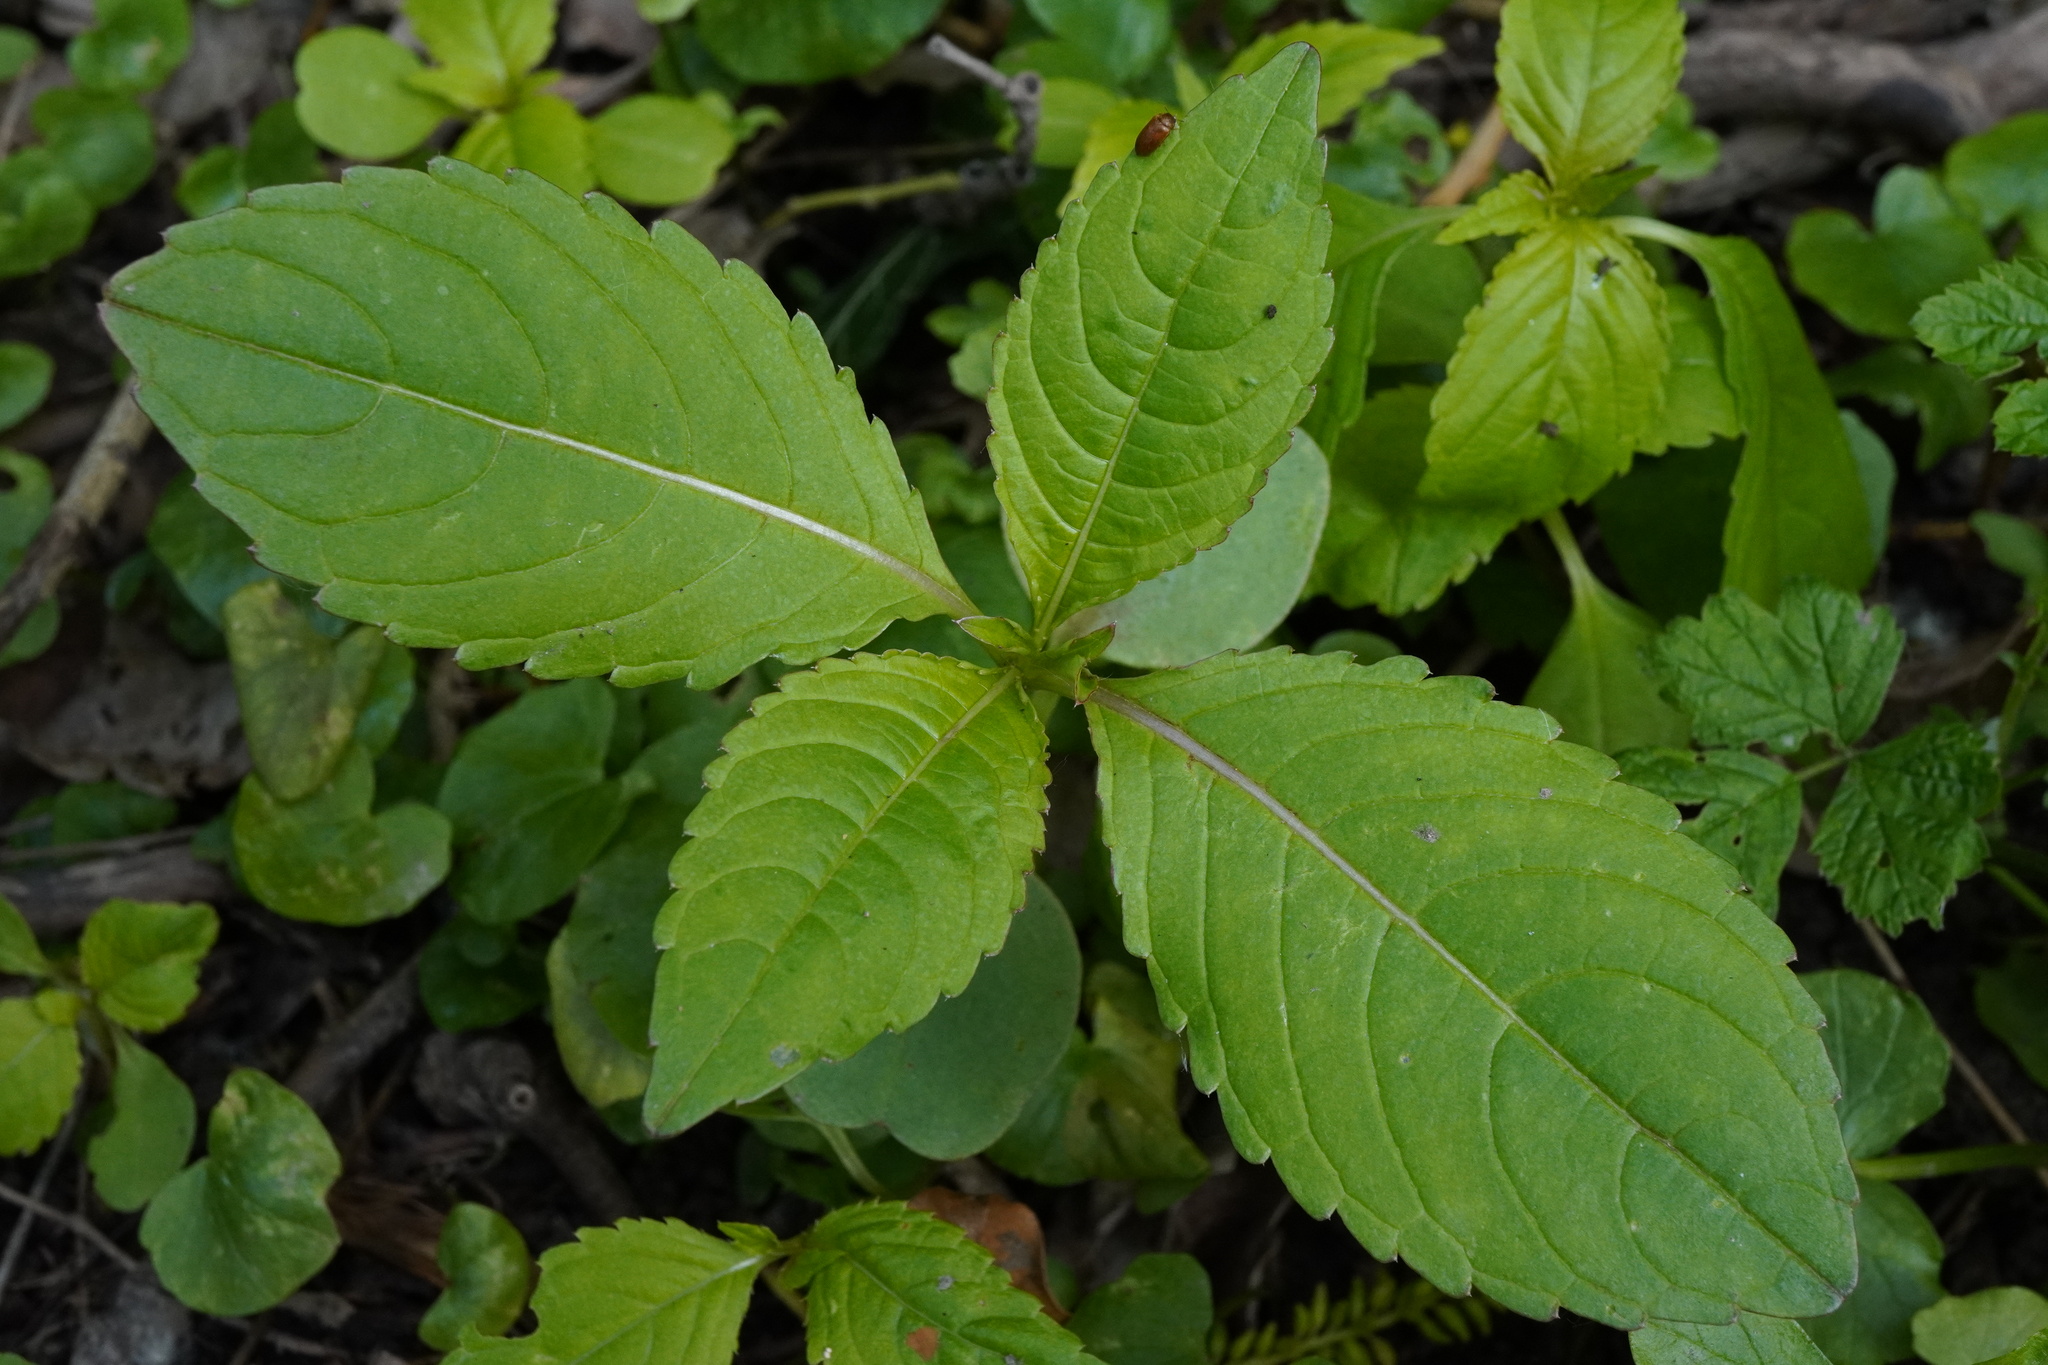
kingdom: Plantae
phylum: Tracheophyta
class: Magnoliopsida
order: Ericales
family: Balsaminaceae
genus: Impatiens
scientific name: Impatiens glandulifera
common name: Himalayan balsam
